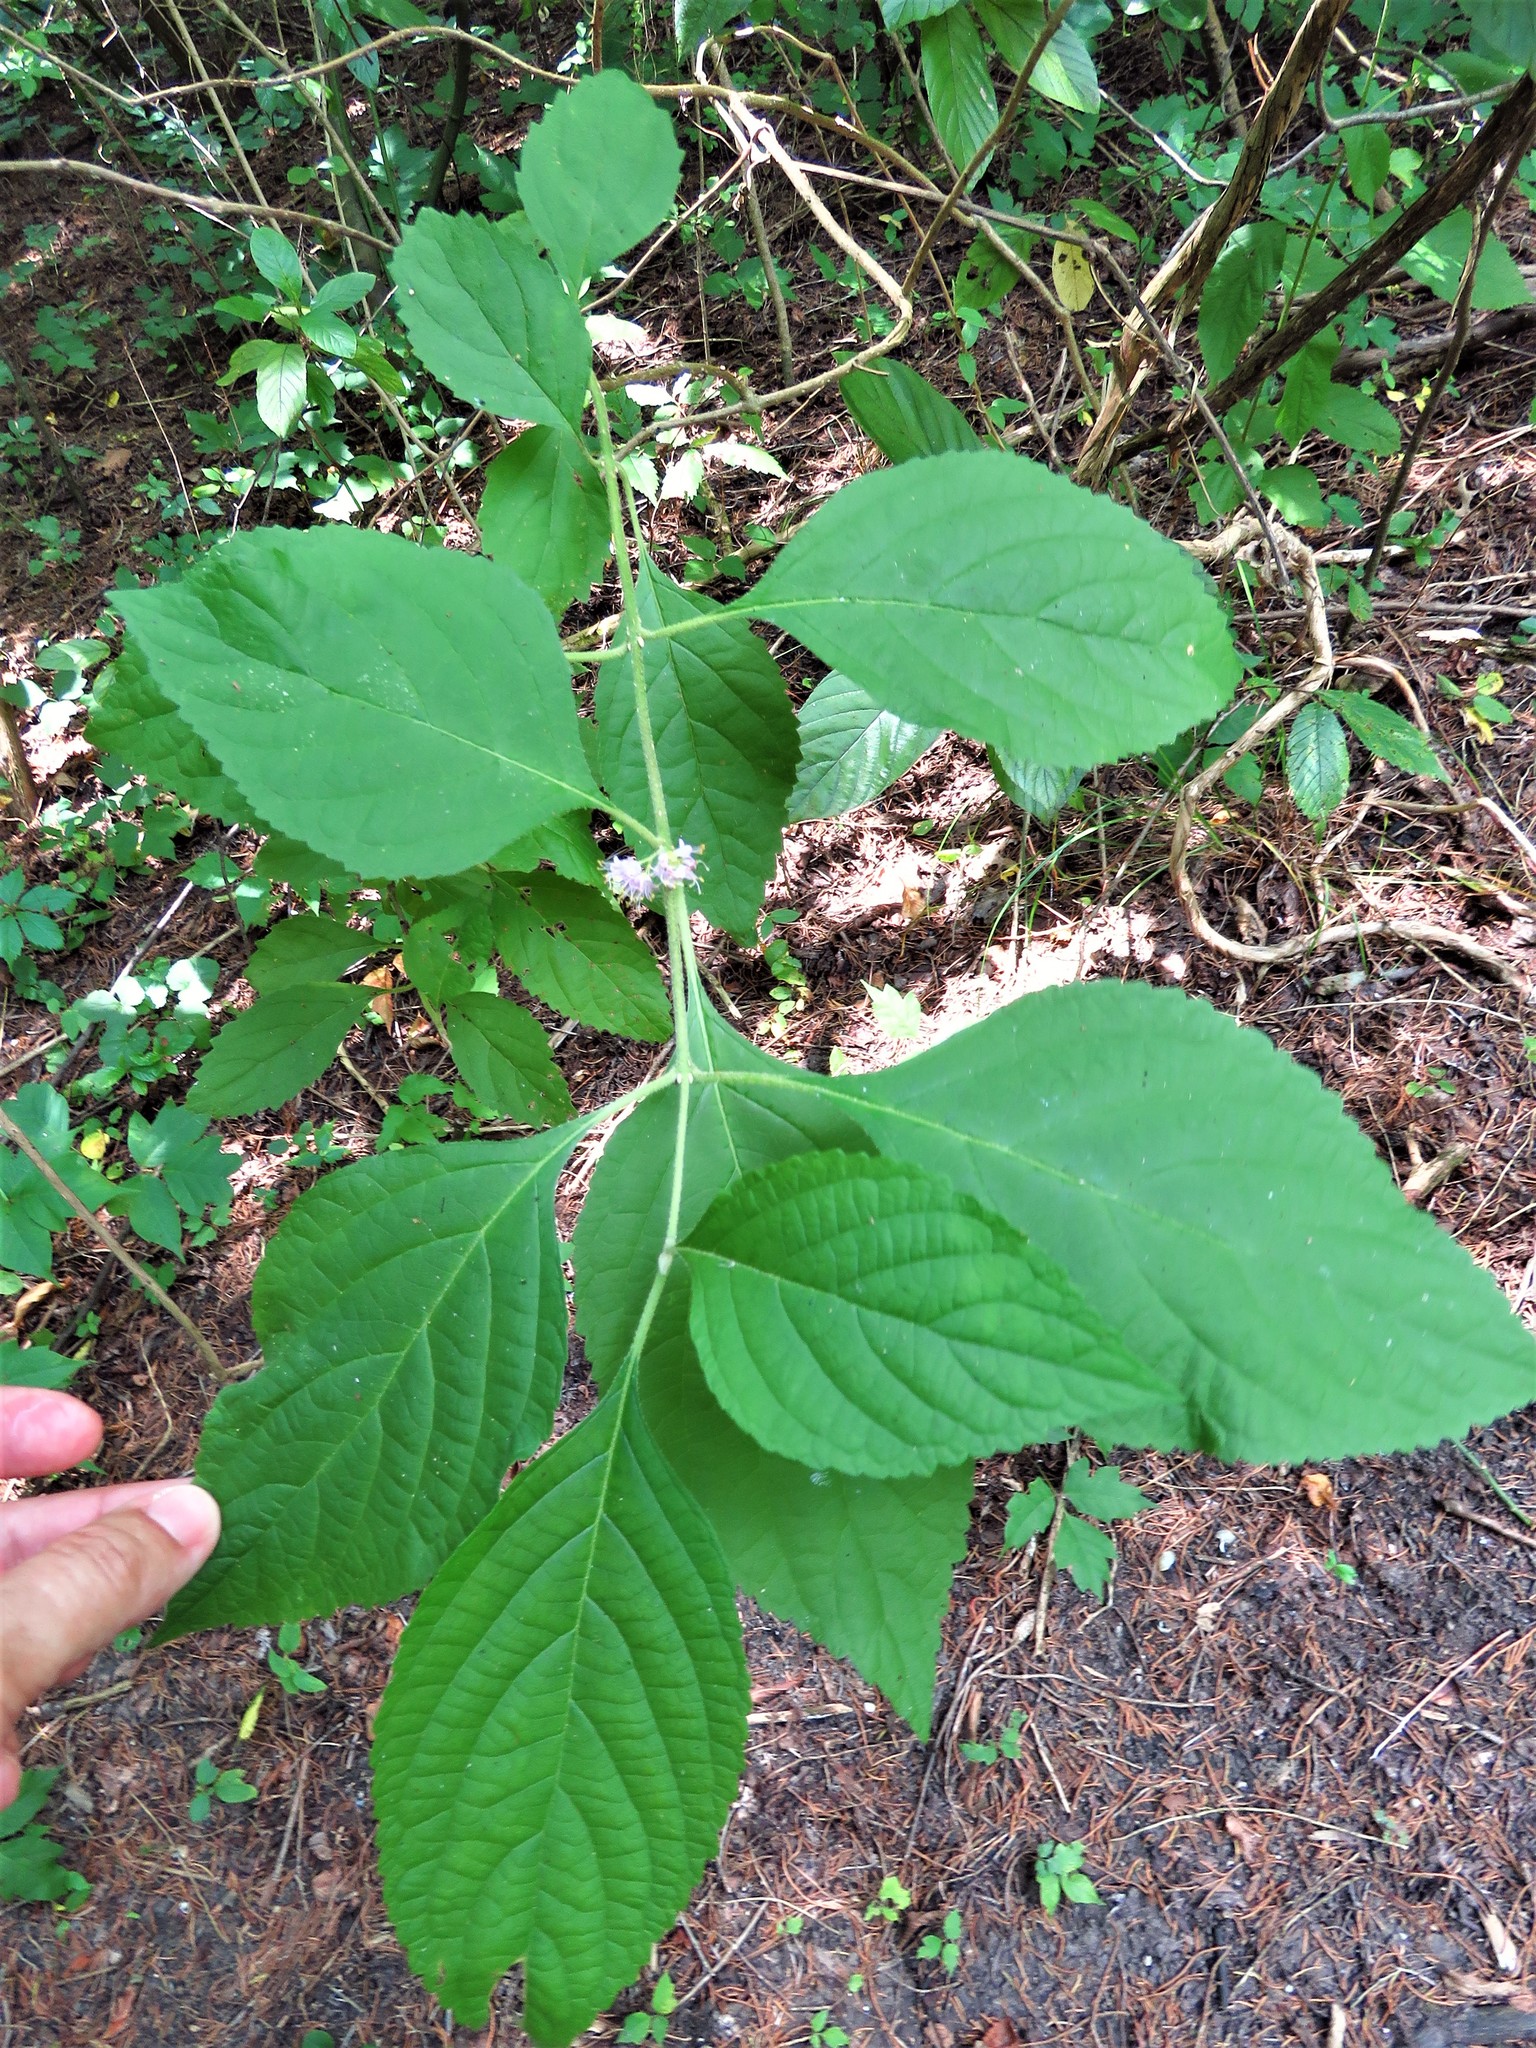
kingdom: Plantae
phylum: Tracheophyta
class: Magnoliopsida
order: Lamiales
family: Lamiaceae
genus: Callicarpa
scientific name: Callicarpa americana
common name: American beautyberry
